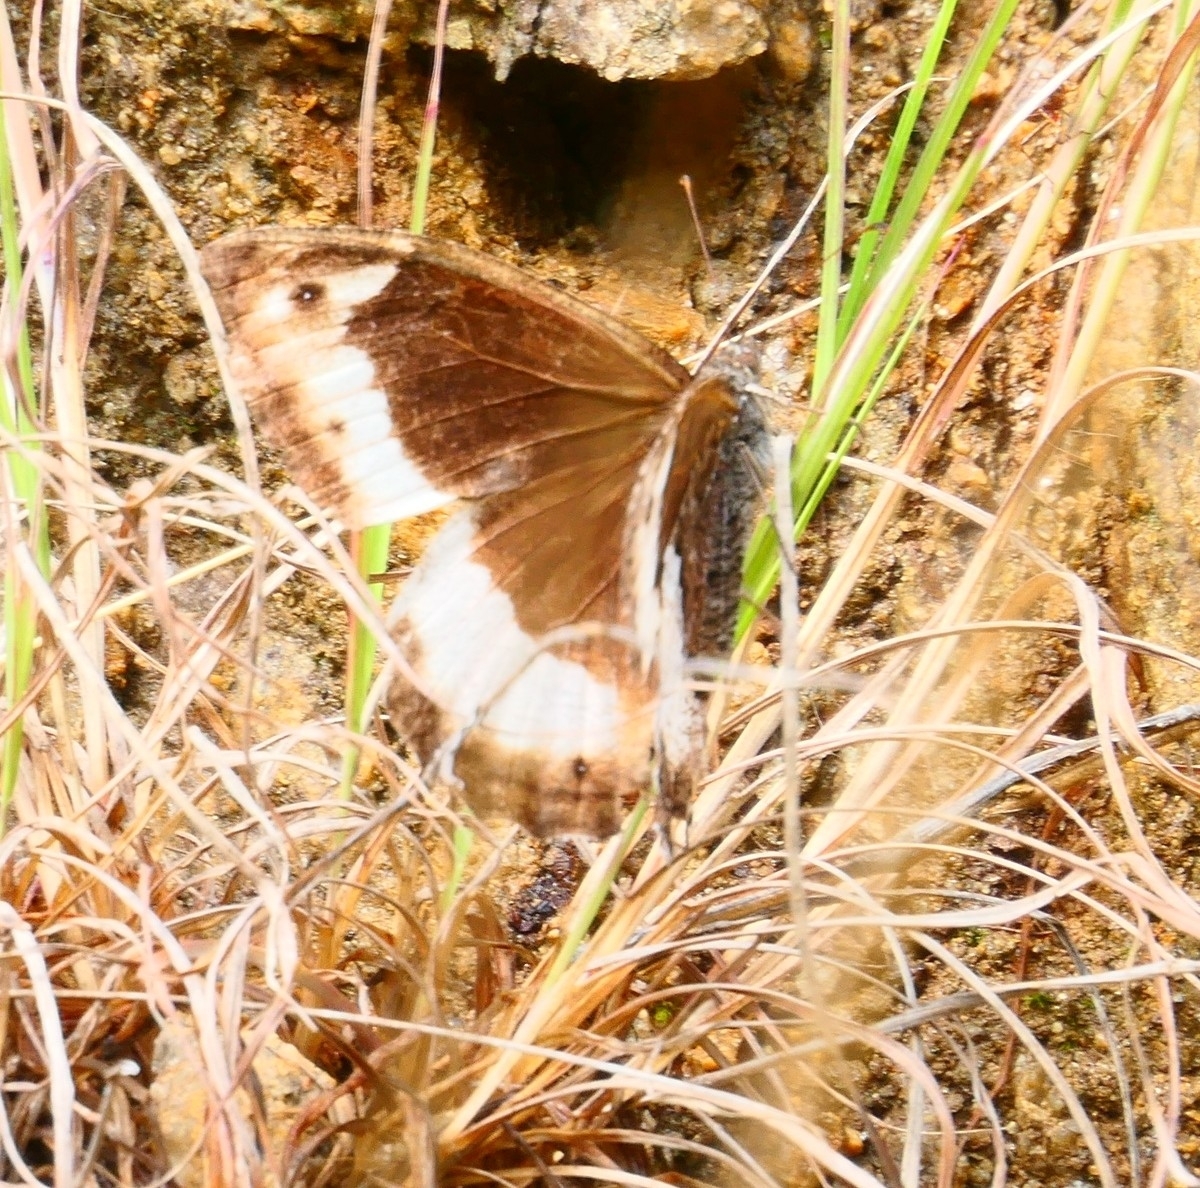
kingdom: Animalia
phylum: Arthropoda
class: Insecta
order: Lepidoptera
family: Nymphalidae
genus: Hipparchia
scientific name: Hipparchia fagi
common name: Woodland grayling
